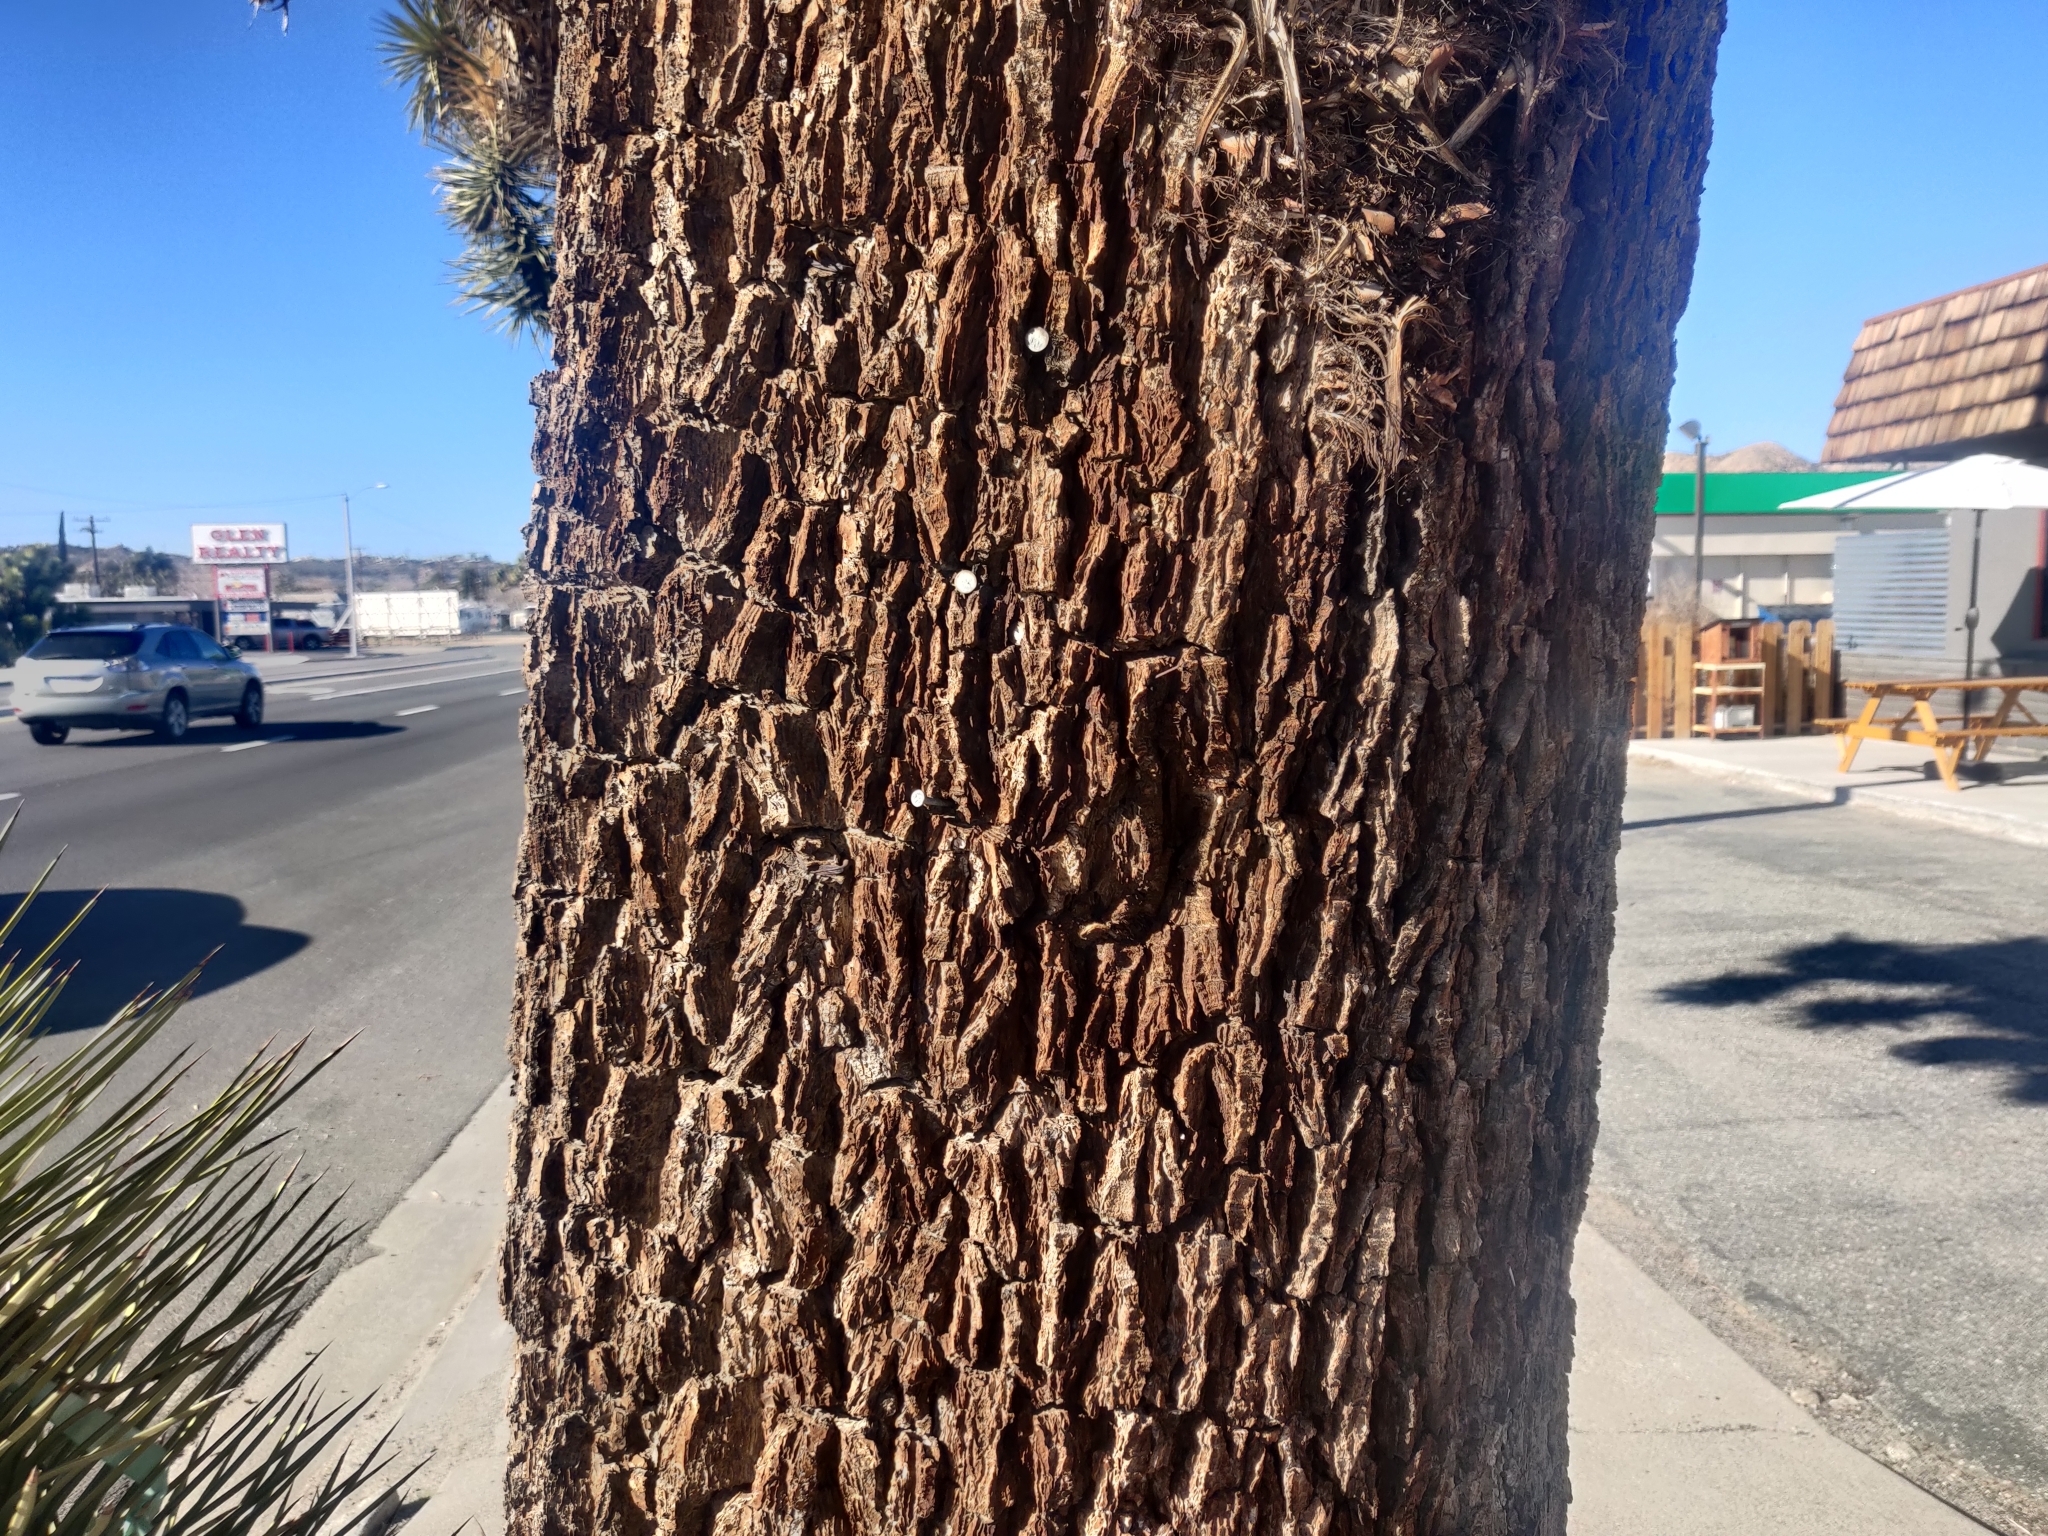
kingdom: Plantae
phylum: Tracheophyta
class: Liliopsida
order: Asparagales
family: Asparagaceae
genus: Yucca
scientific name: Yucca brevifolia
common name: Joshua tree
